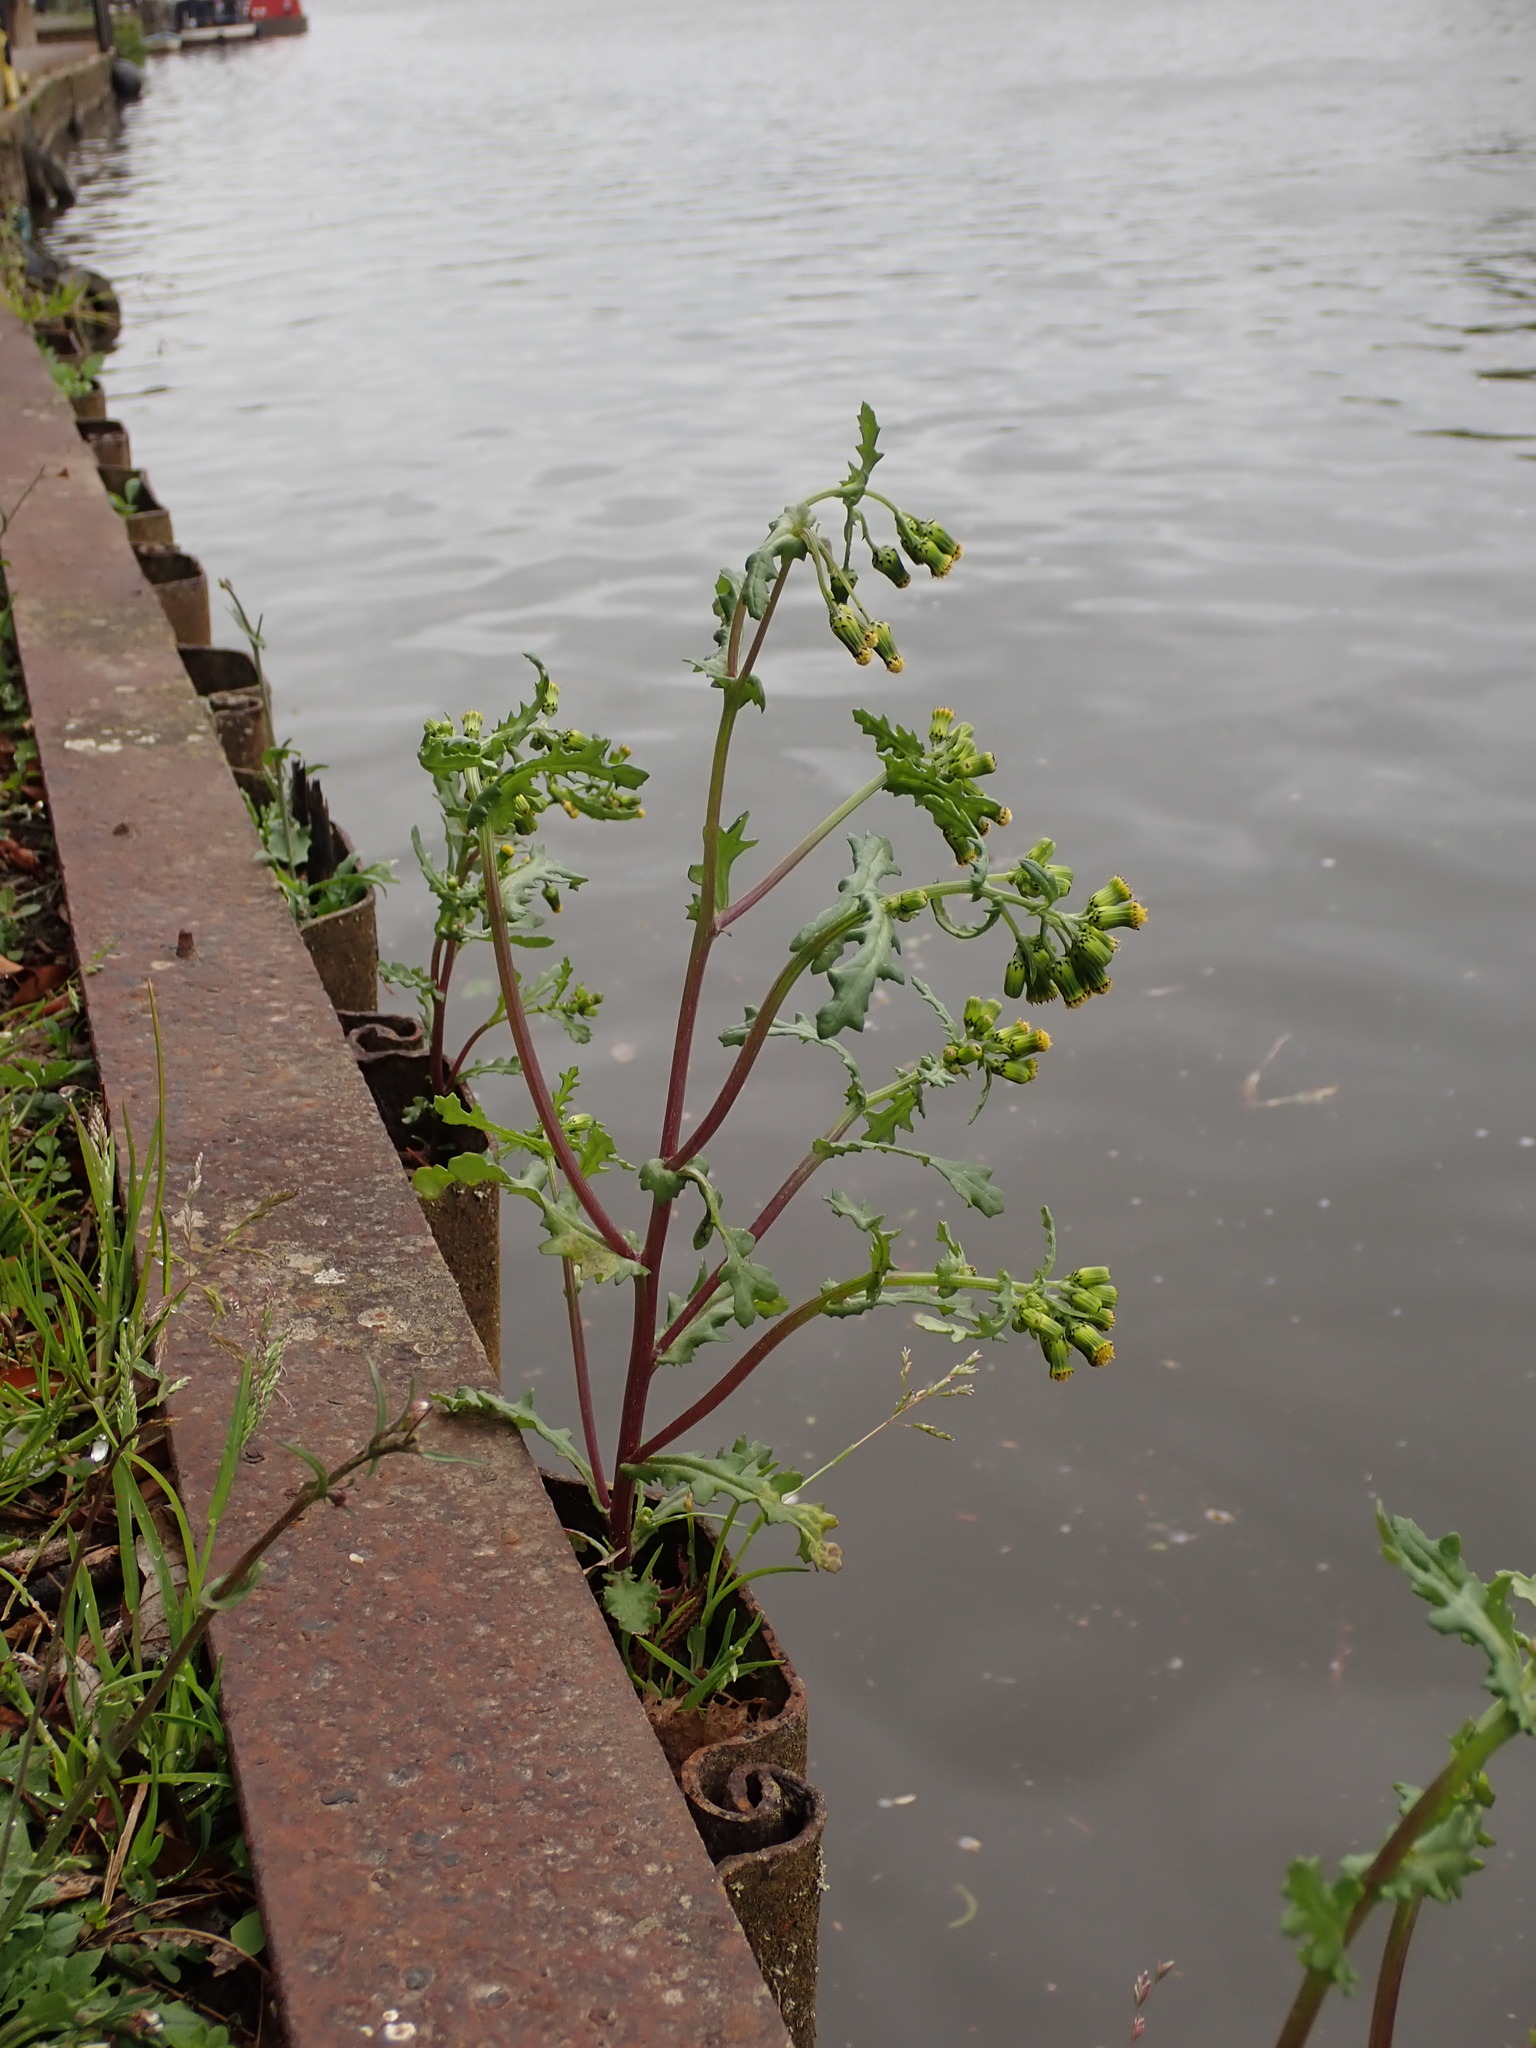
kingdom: Plantae
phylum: Tracheophyta
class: Magnoliopsida
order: Asterales
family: Asteraceae
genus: Senecio
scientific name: Senecio vulgaris
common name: Old-man-in-the-spring
